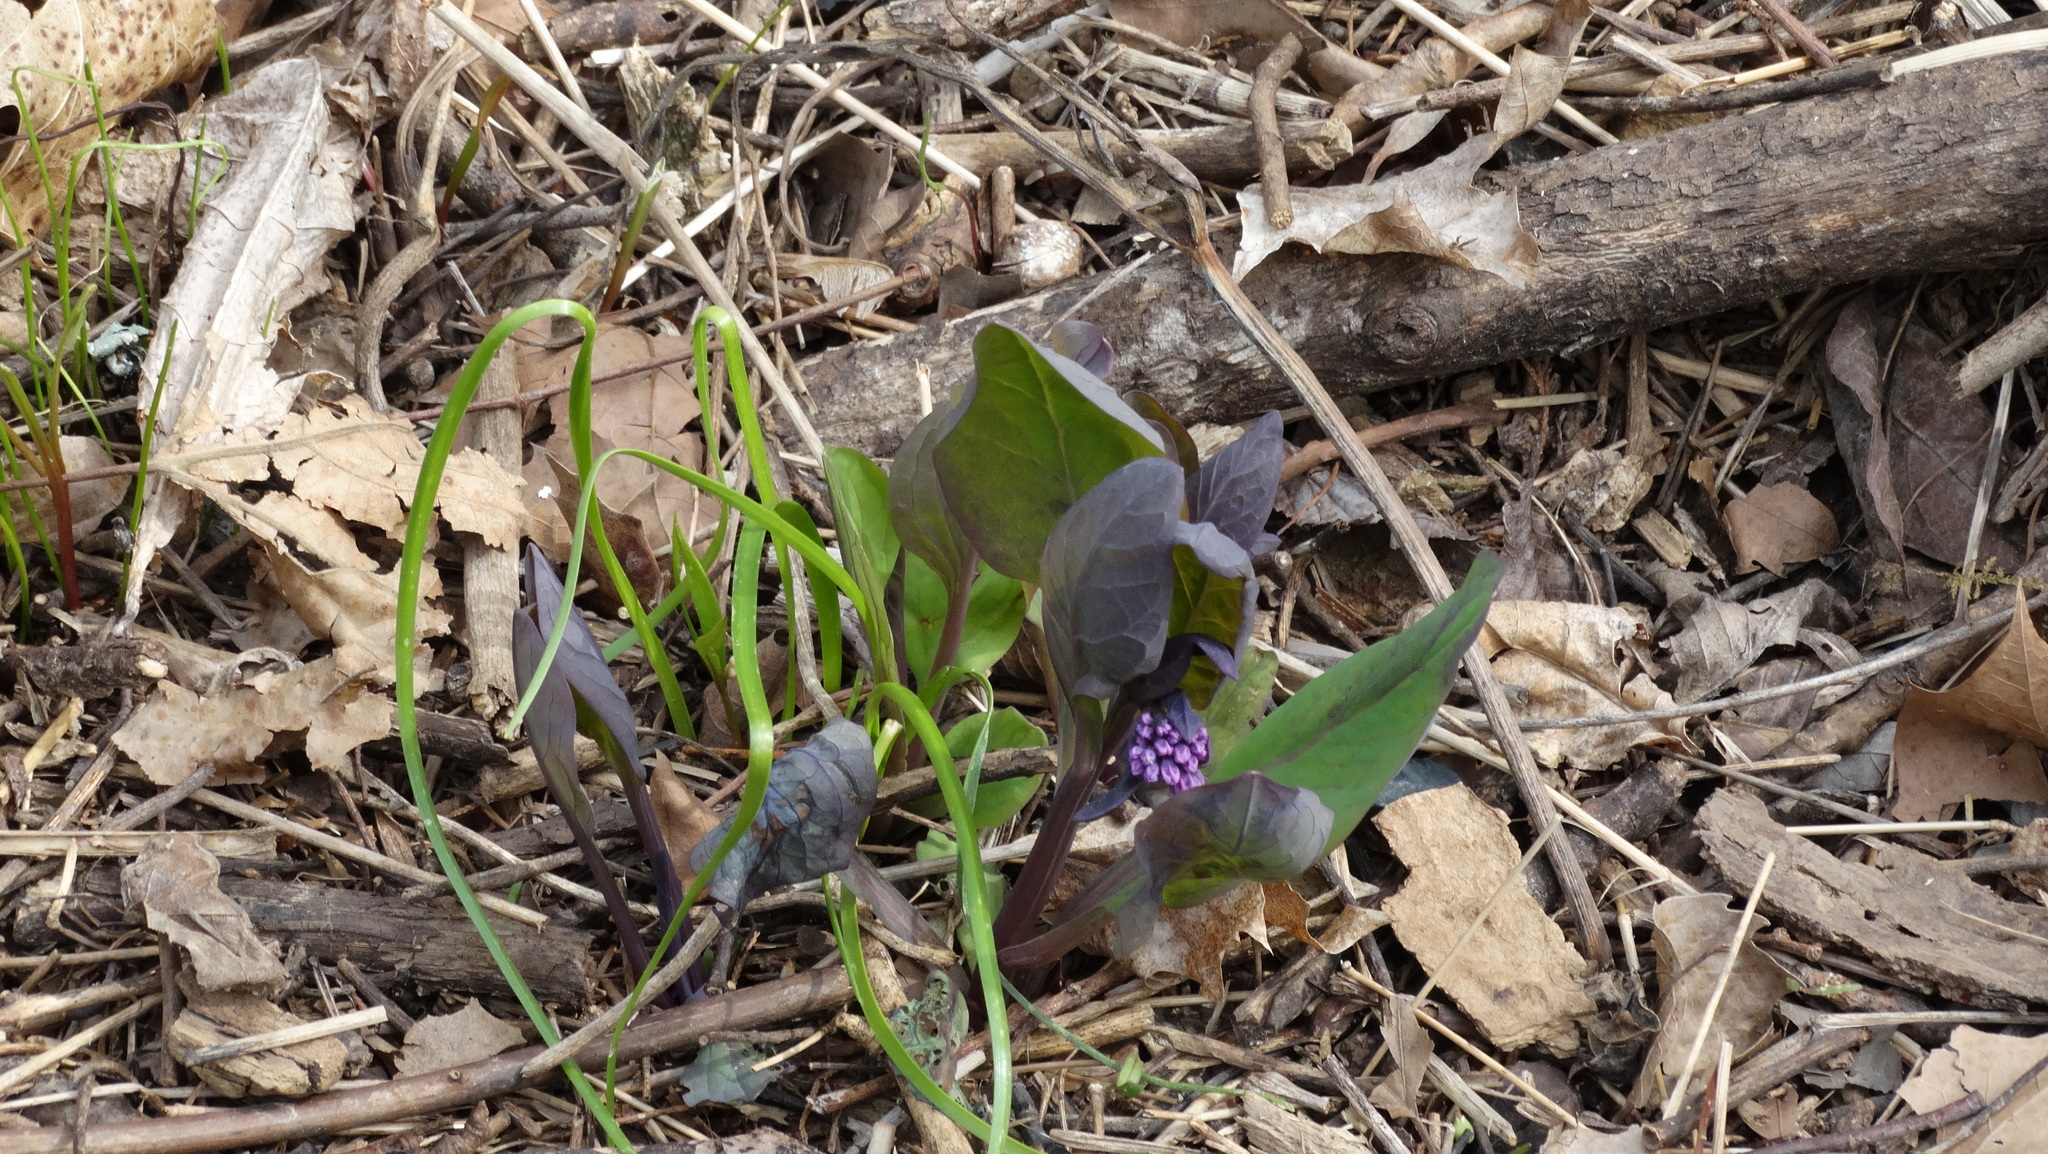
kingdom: Plantae
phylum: Tracheophyta
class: Magnoliopsida
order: Boraginales
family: Boraginaceae
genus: Mertensia
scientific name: Mertensia virginica
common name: Virginia bluebells
